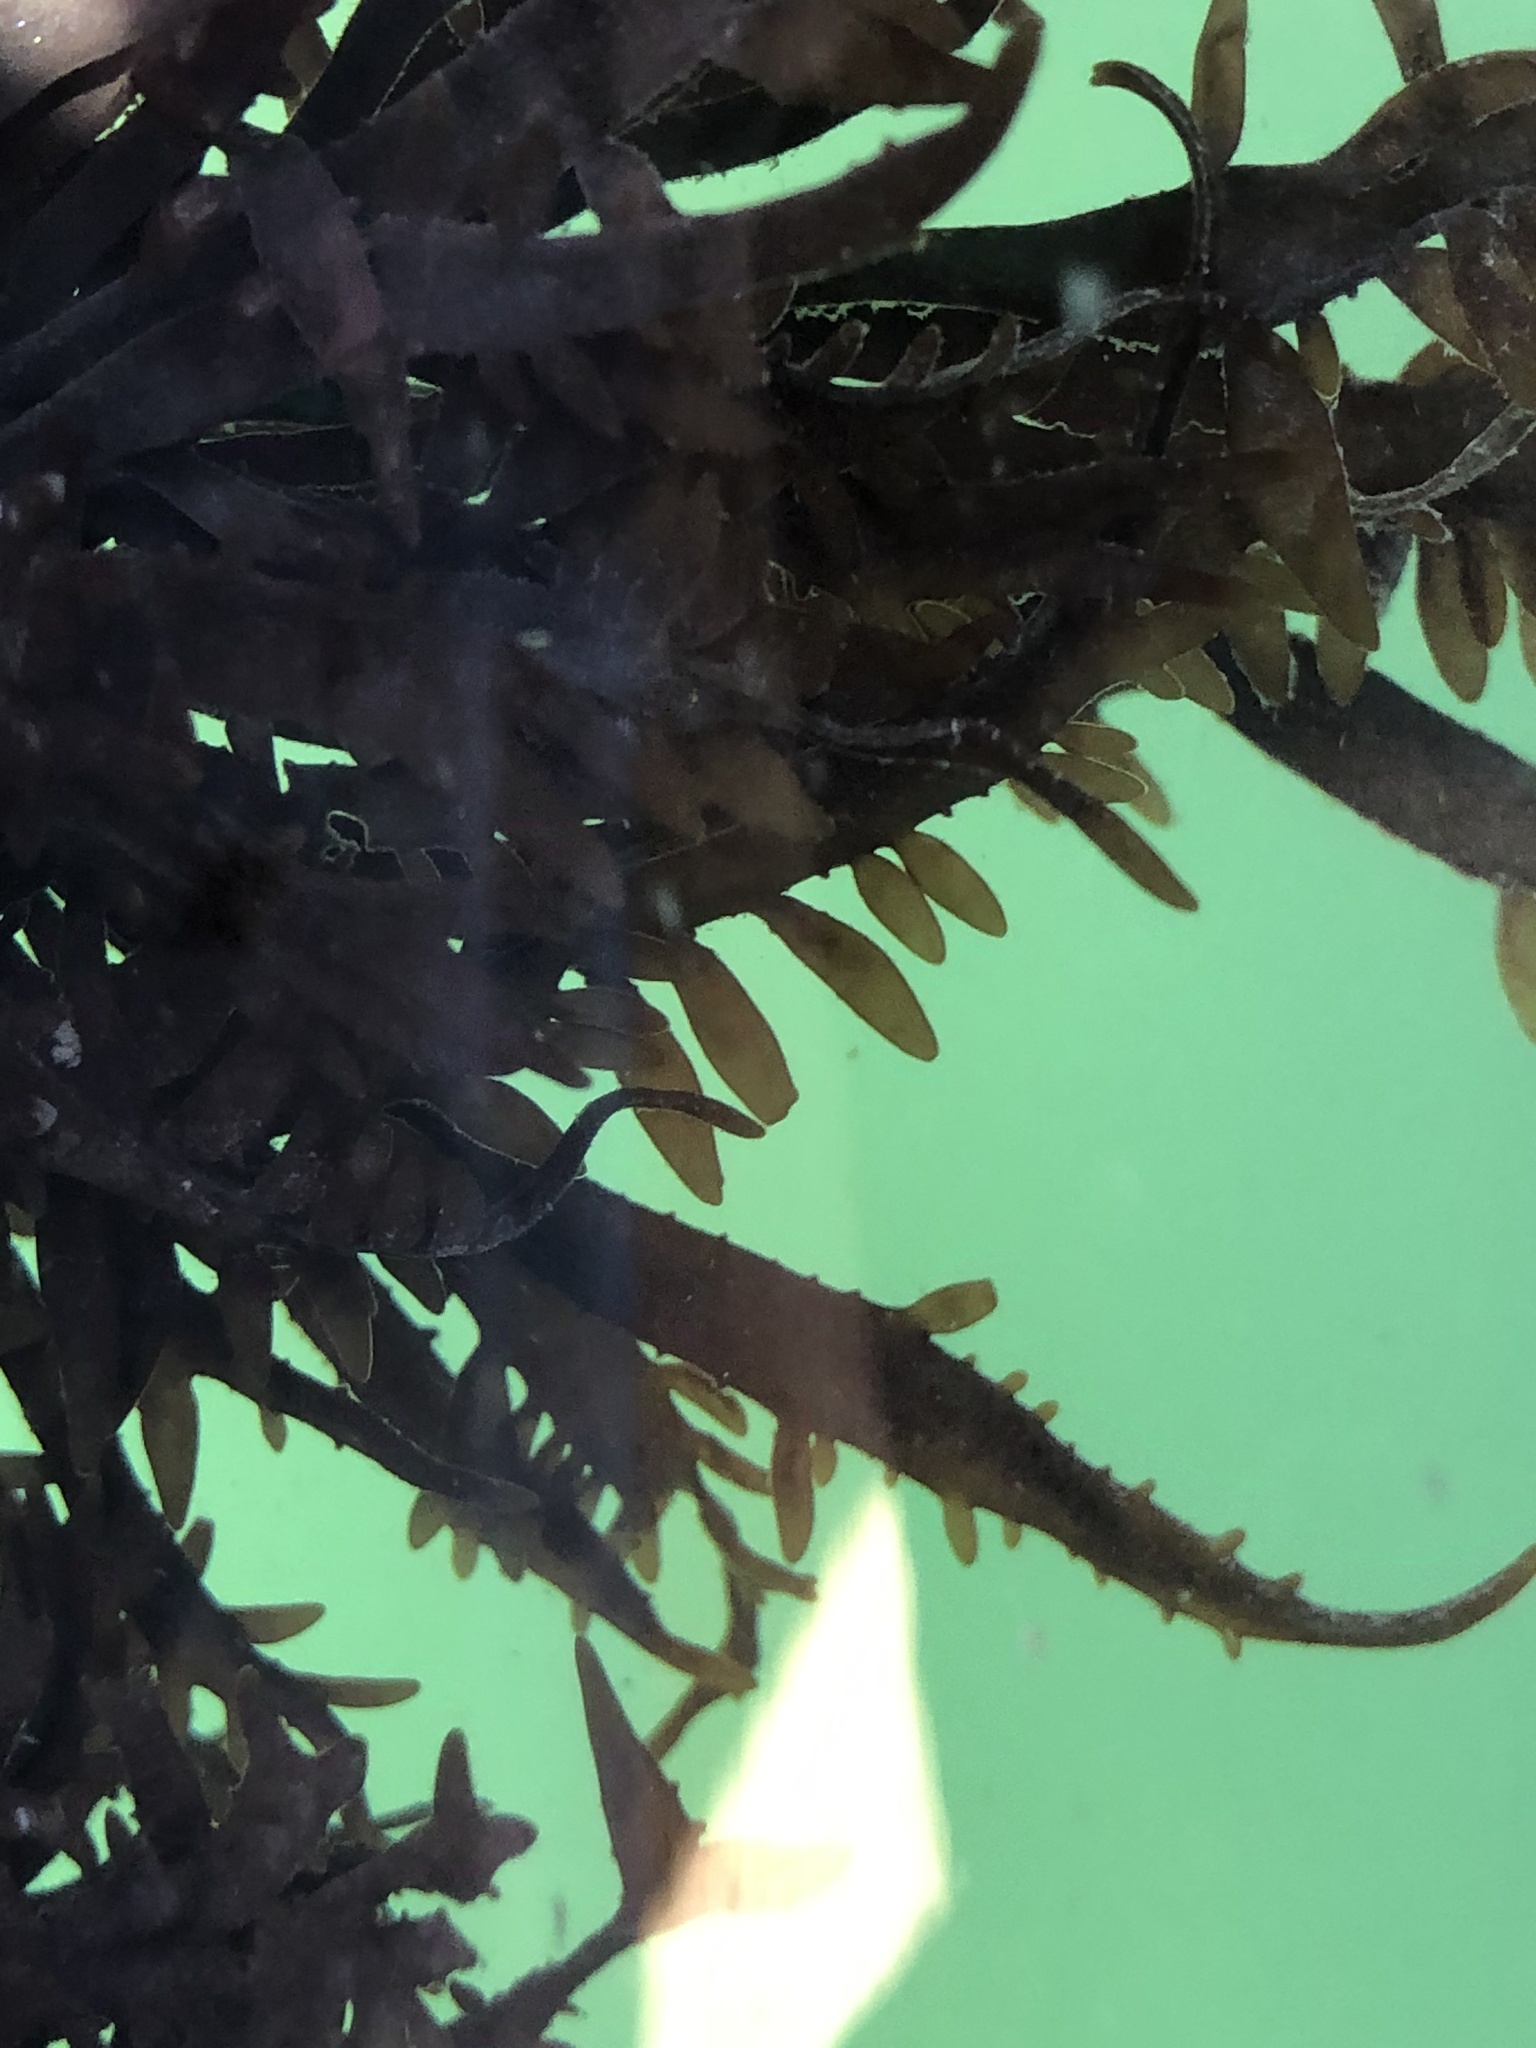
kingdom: Plantae
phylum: Rhodophyta
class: Florideophyceae
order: Halymeniales
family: Halymeniaceae
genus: Grateloupia
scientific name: Grateloupia Prionitis lanceolata
